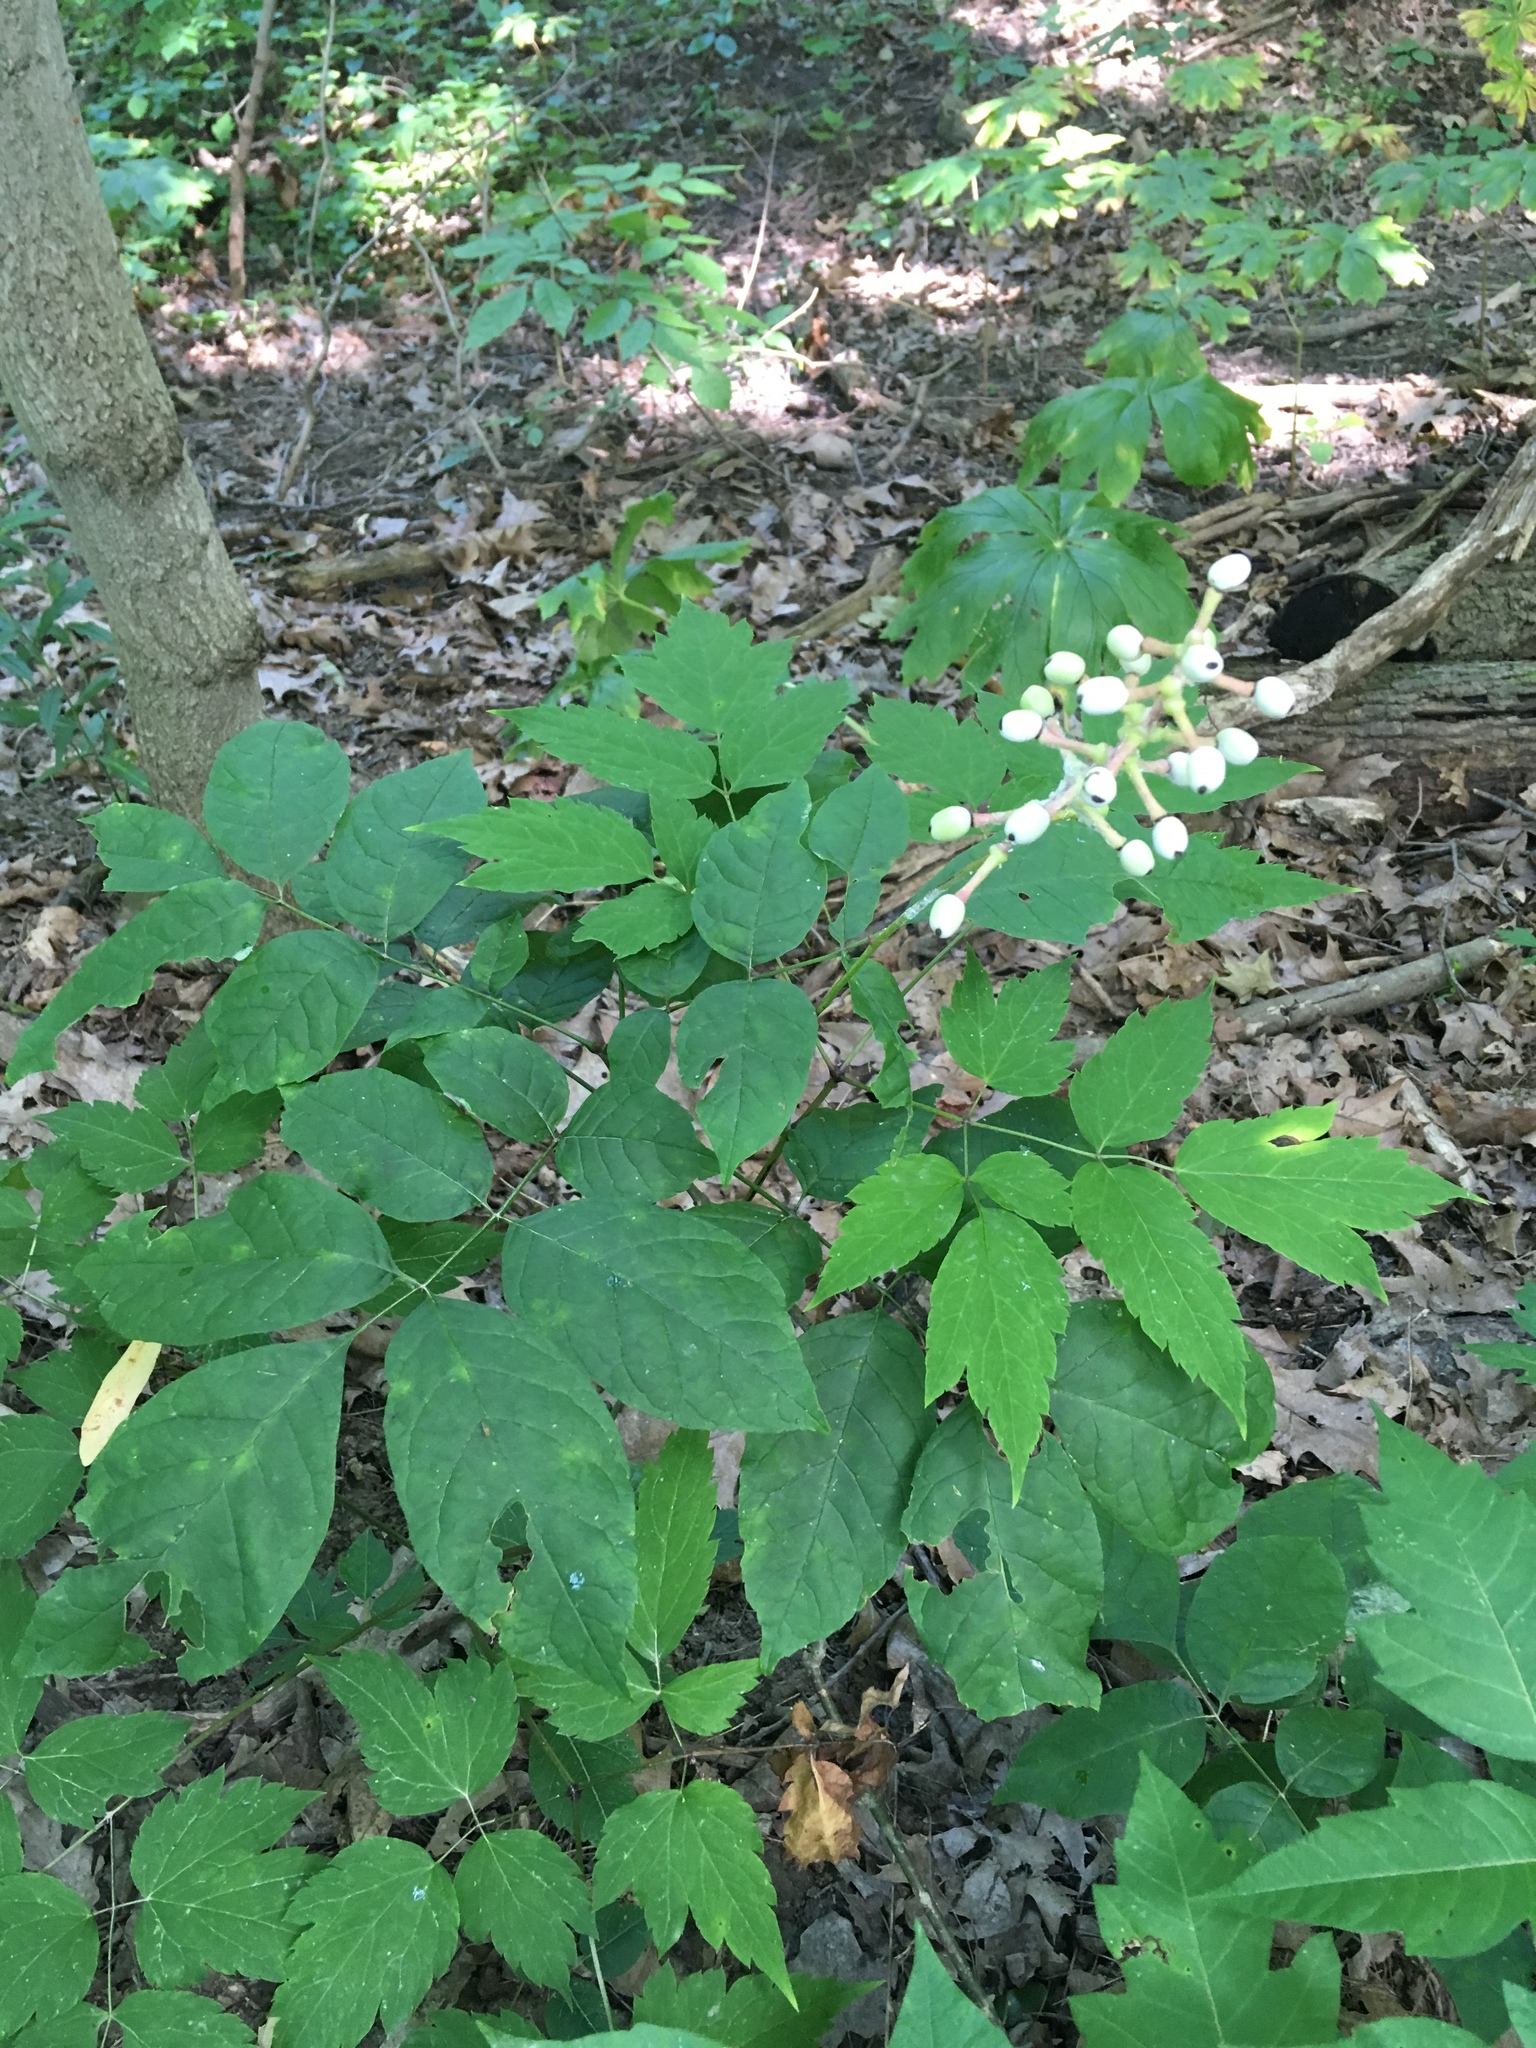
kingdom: Plantae
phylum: Tracheophyta
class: Magnoliopsida
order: Ranunculales
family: Ranunculaceae
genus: Actaea
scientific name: Actaea pachypoda
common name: Doll's-eyes
